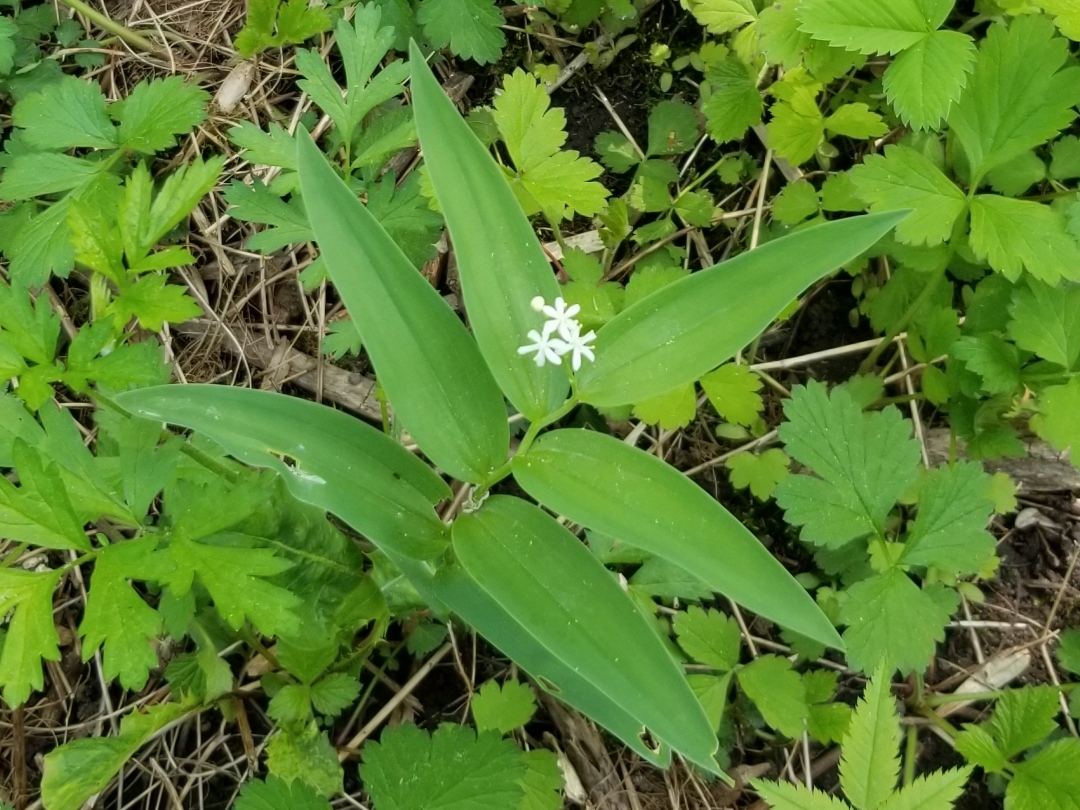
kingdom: Plantae
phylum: Tracheophyta
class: Liliopsida
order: Asparagales
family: Asparagaceae
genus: Maianthemum
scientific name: Maianthemum stellatum
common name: Little false solomon's seal
